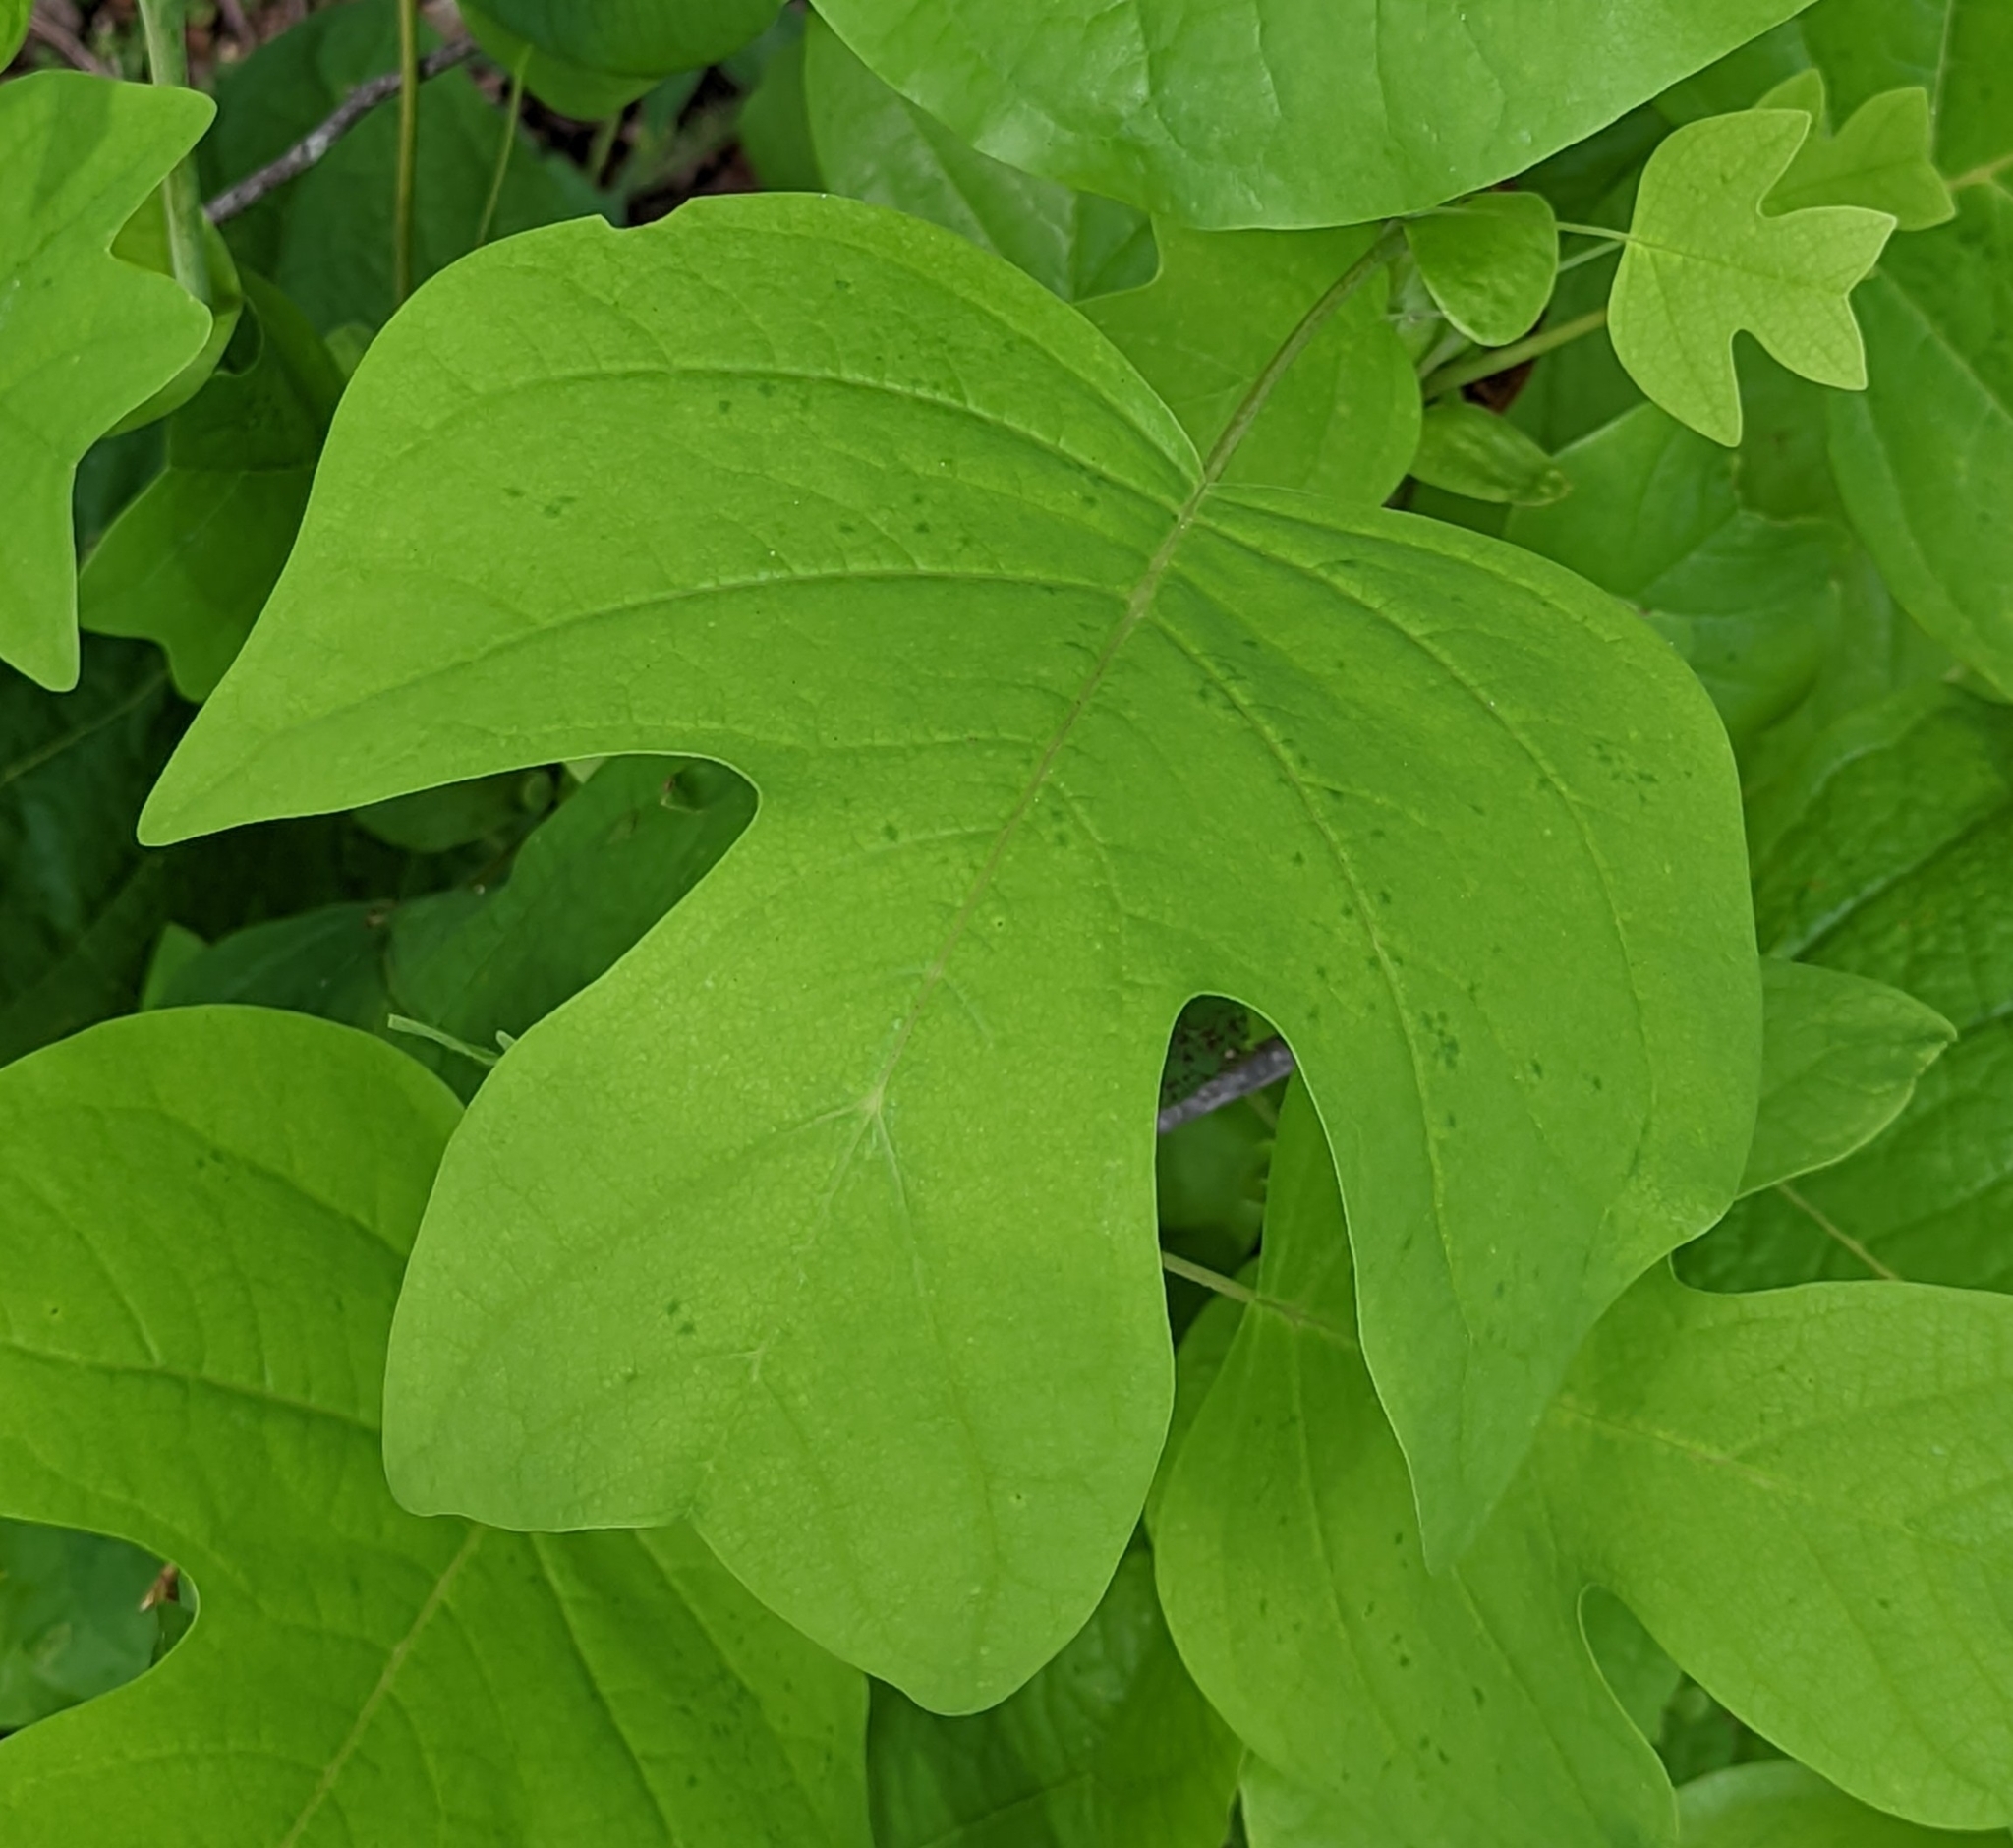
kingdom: Plantae
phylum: Tracheophyta
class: Magnoliopsida
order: Magnoliales
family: Magnoliaceae
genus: Liriodendron
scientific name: Liriodendron tulipifera
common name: Tulip tree
